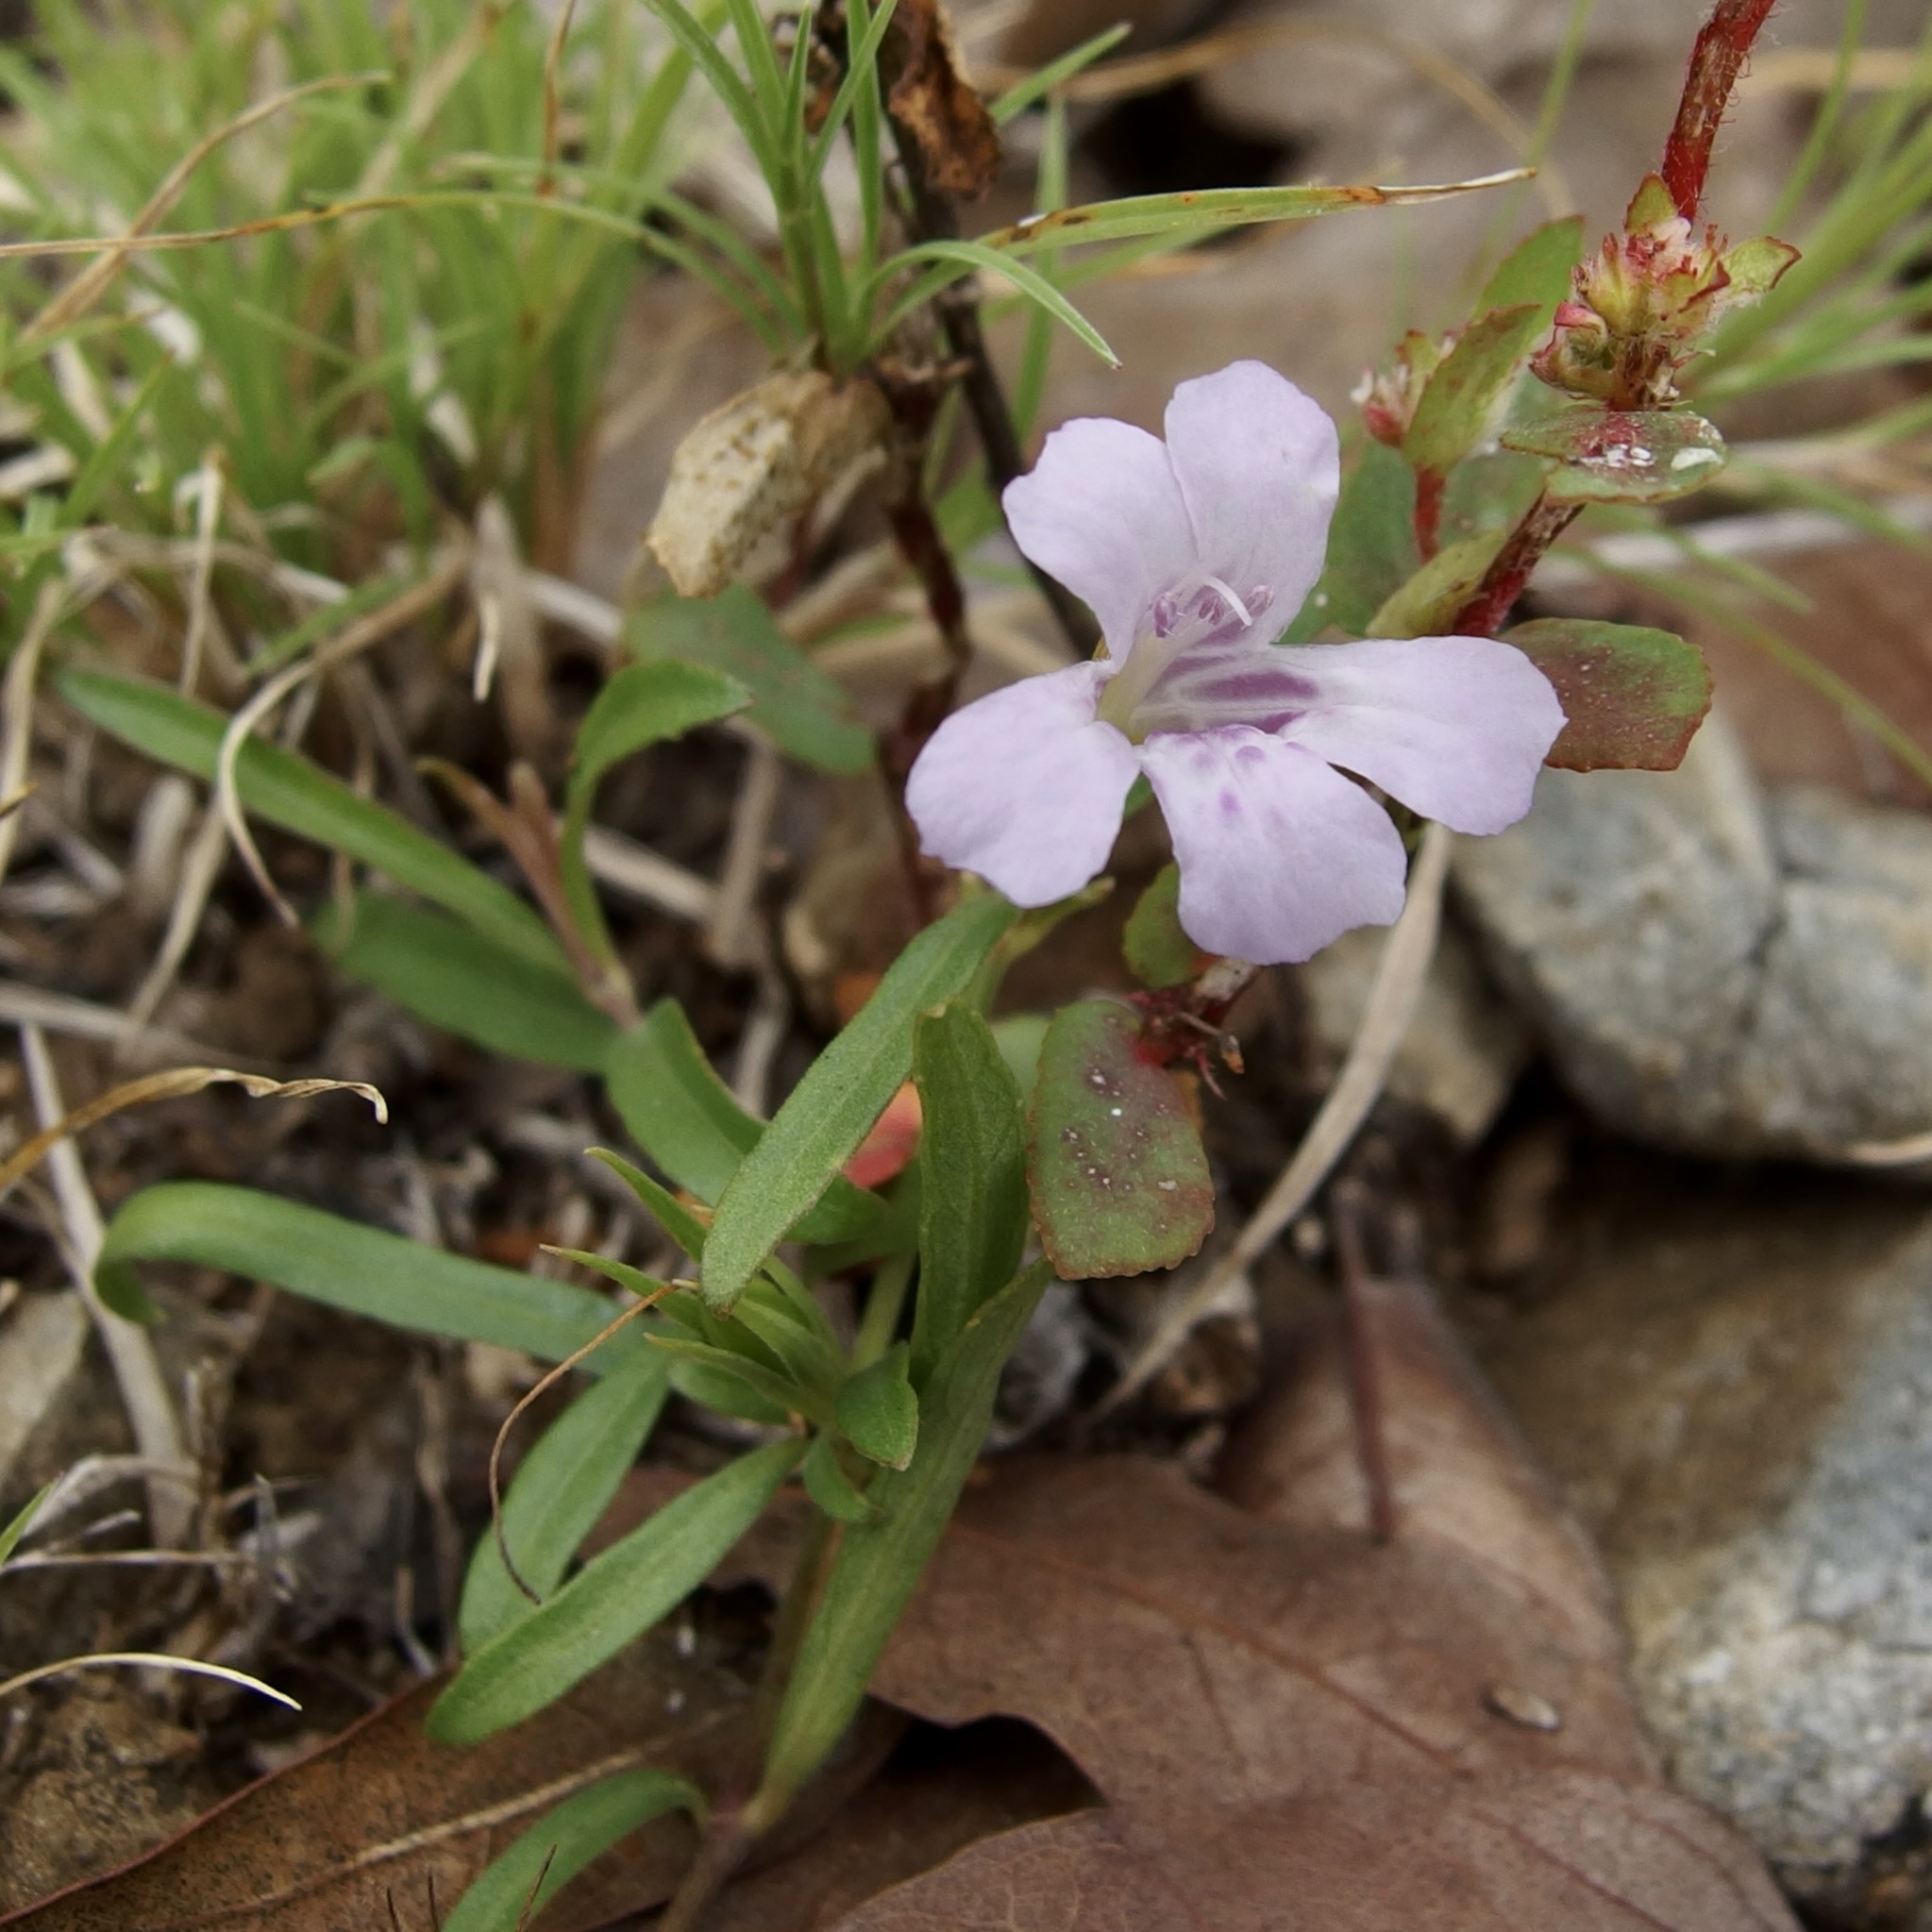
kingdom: Plantae
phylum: Tracheophyta
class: Magnoliopsida
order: Lamiales
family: Acanthaceae
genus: Dyschoriste
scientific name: Dyschoriste decumbens
